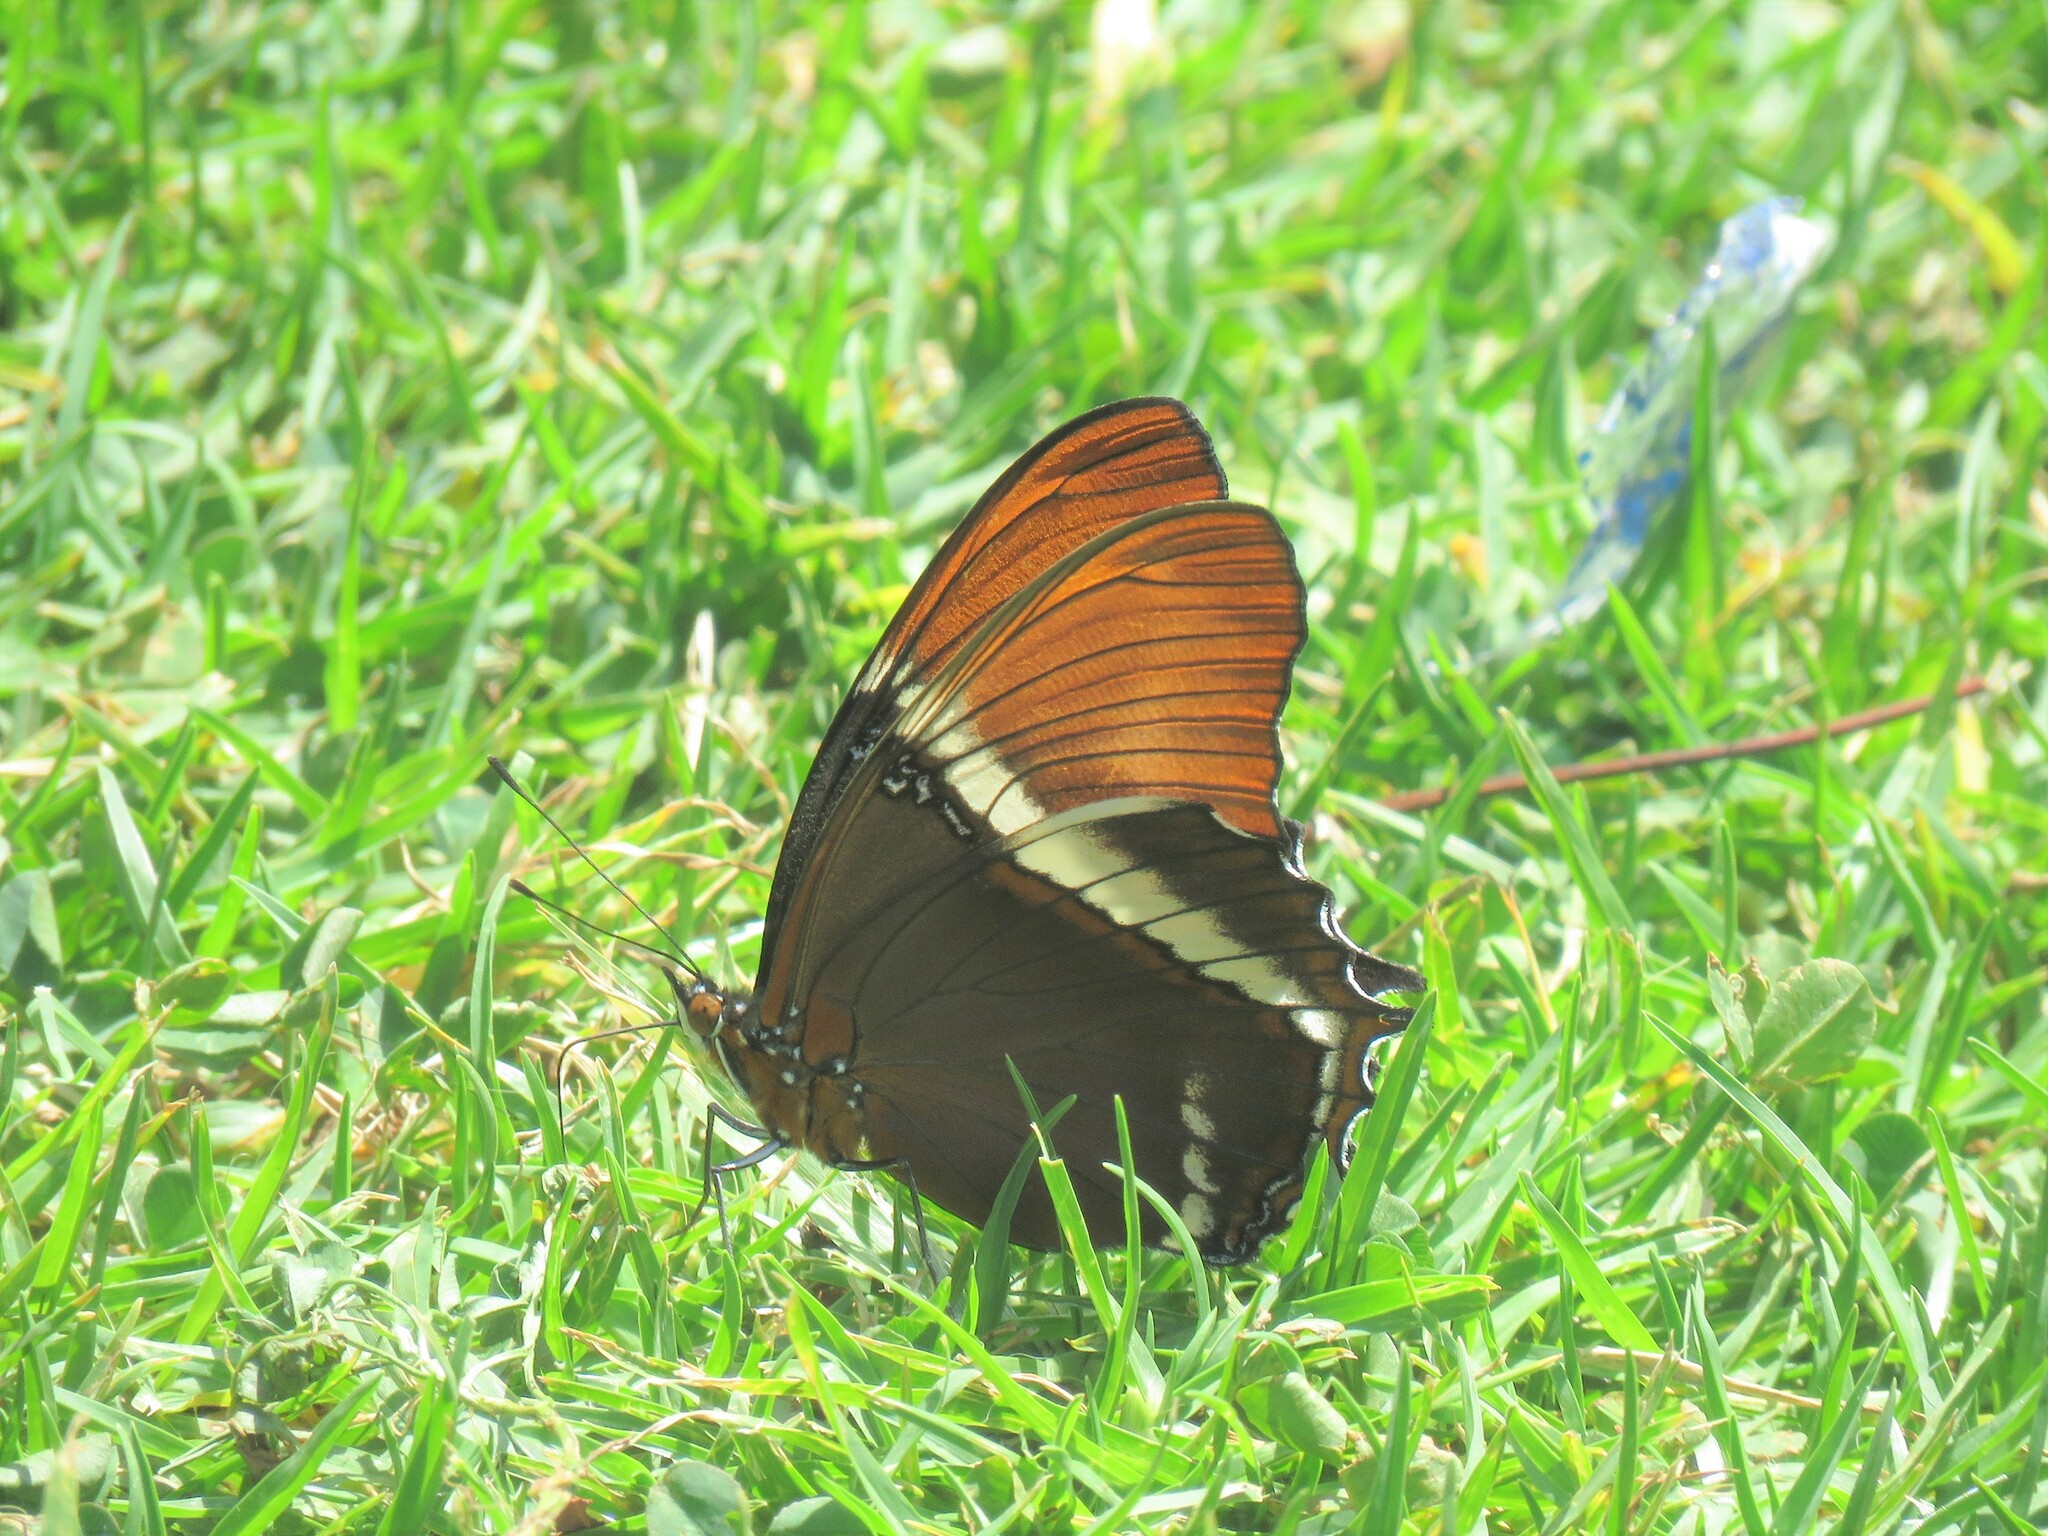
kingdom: Animalia
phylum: Arthropoda
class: Insecta
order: Lepidoptera
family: Nymphalidae
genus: Siproeta
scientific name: Siproeta epaphus
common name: Rusty-tipped page
